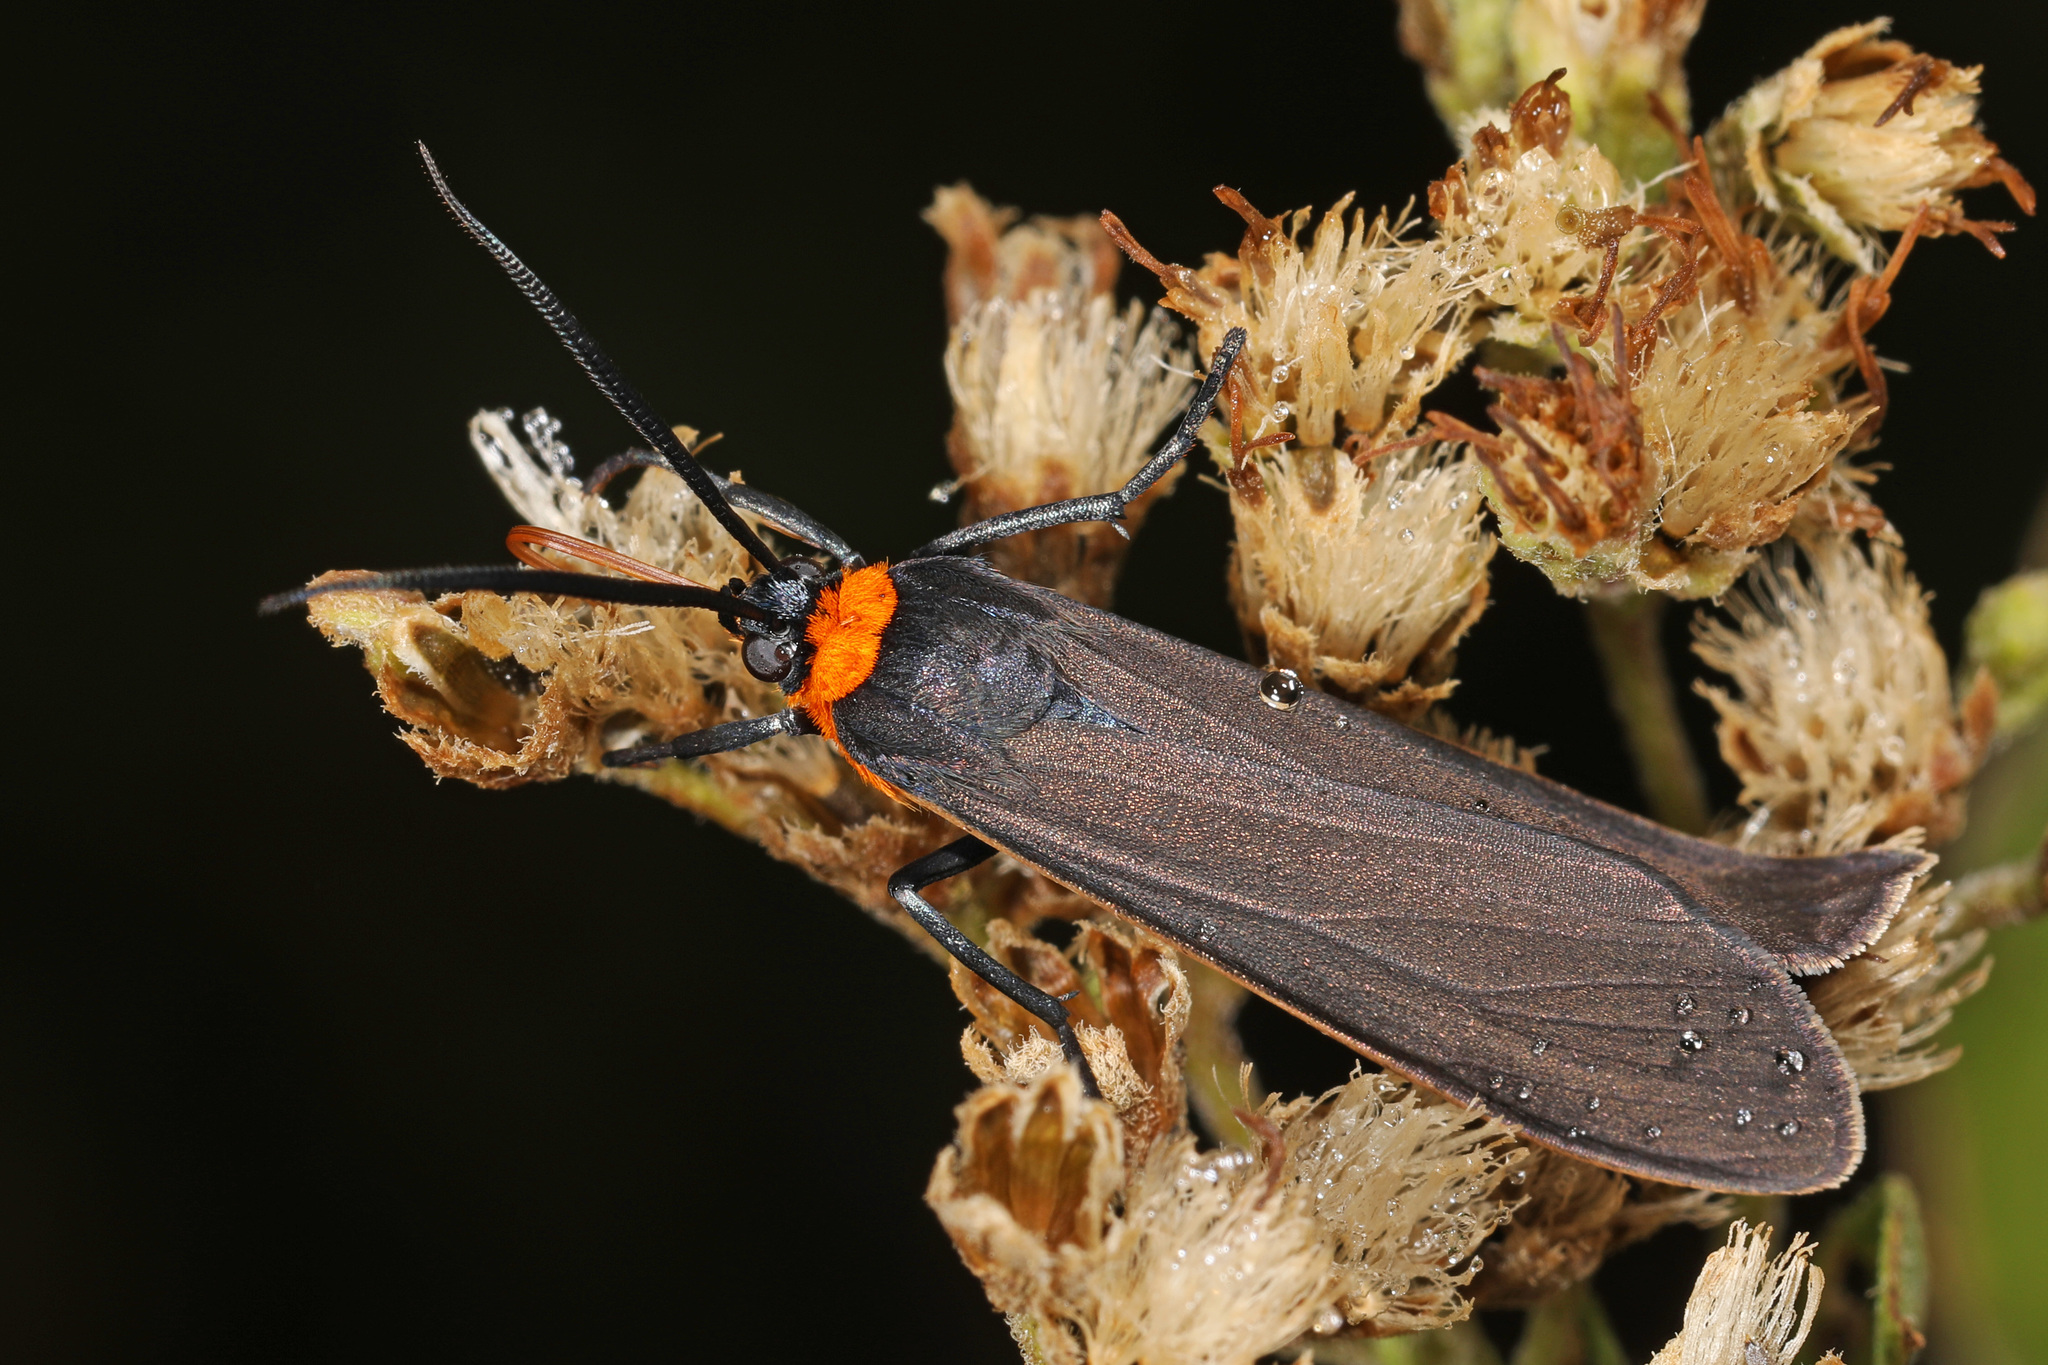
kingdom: Animalia
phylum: Arthropoda
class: Insecta
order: Lepidoptera
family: Erebidae
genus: Cisseps
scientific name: Cisseps fulvicollis
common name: Yellow-collared scape moth
